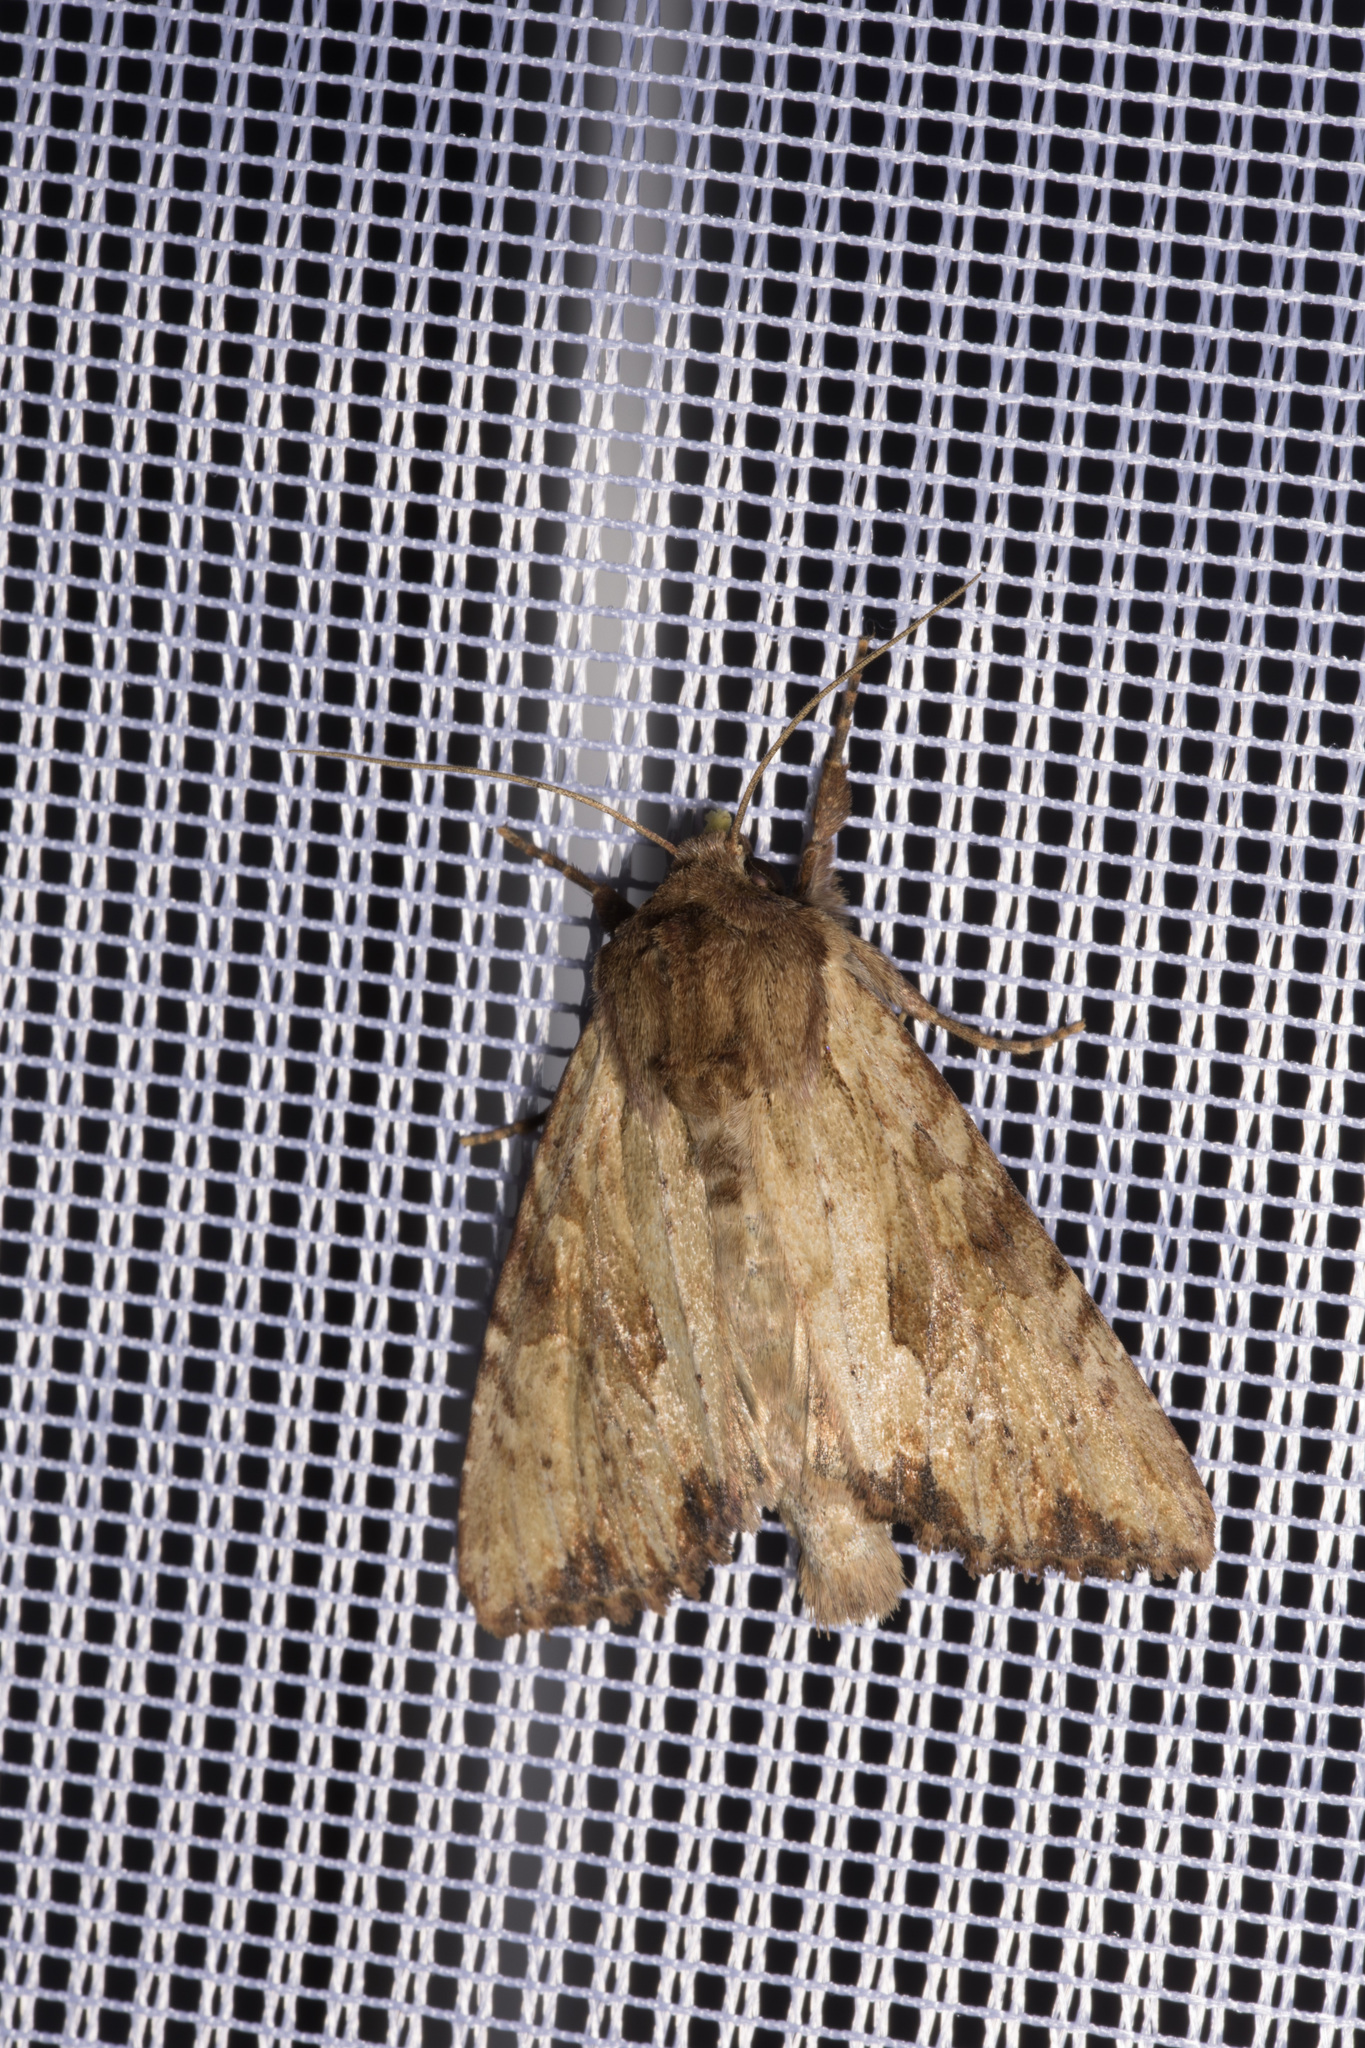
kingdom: Animalia
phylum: Arthropoda
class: Insecta
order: Lepidoptera
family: Noctuidae
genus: Apamea
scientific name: Apamea sublustris
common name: Reddish light arches
